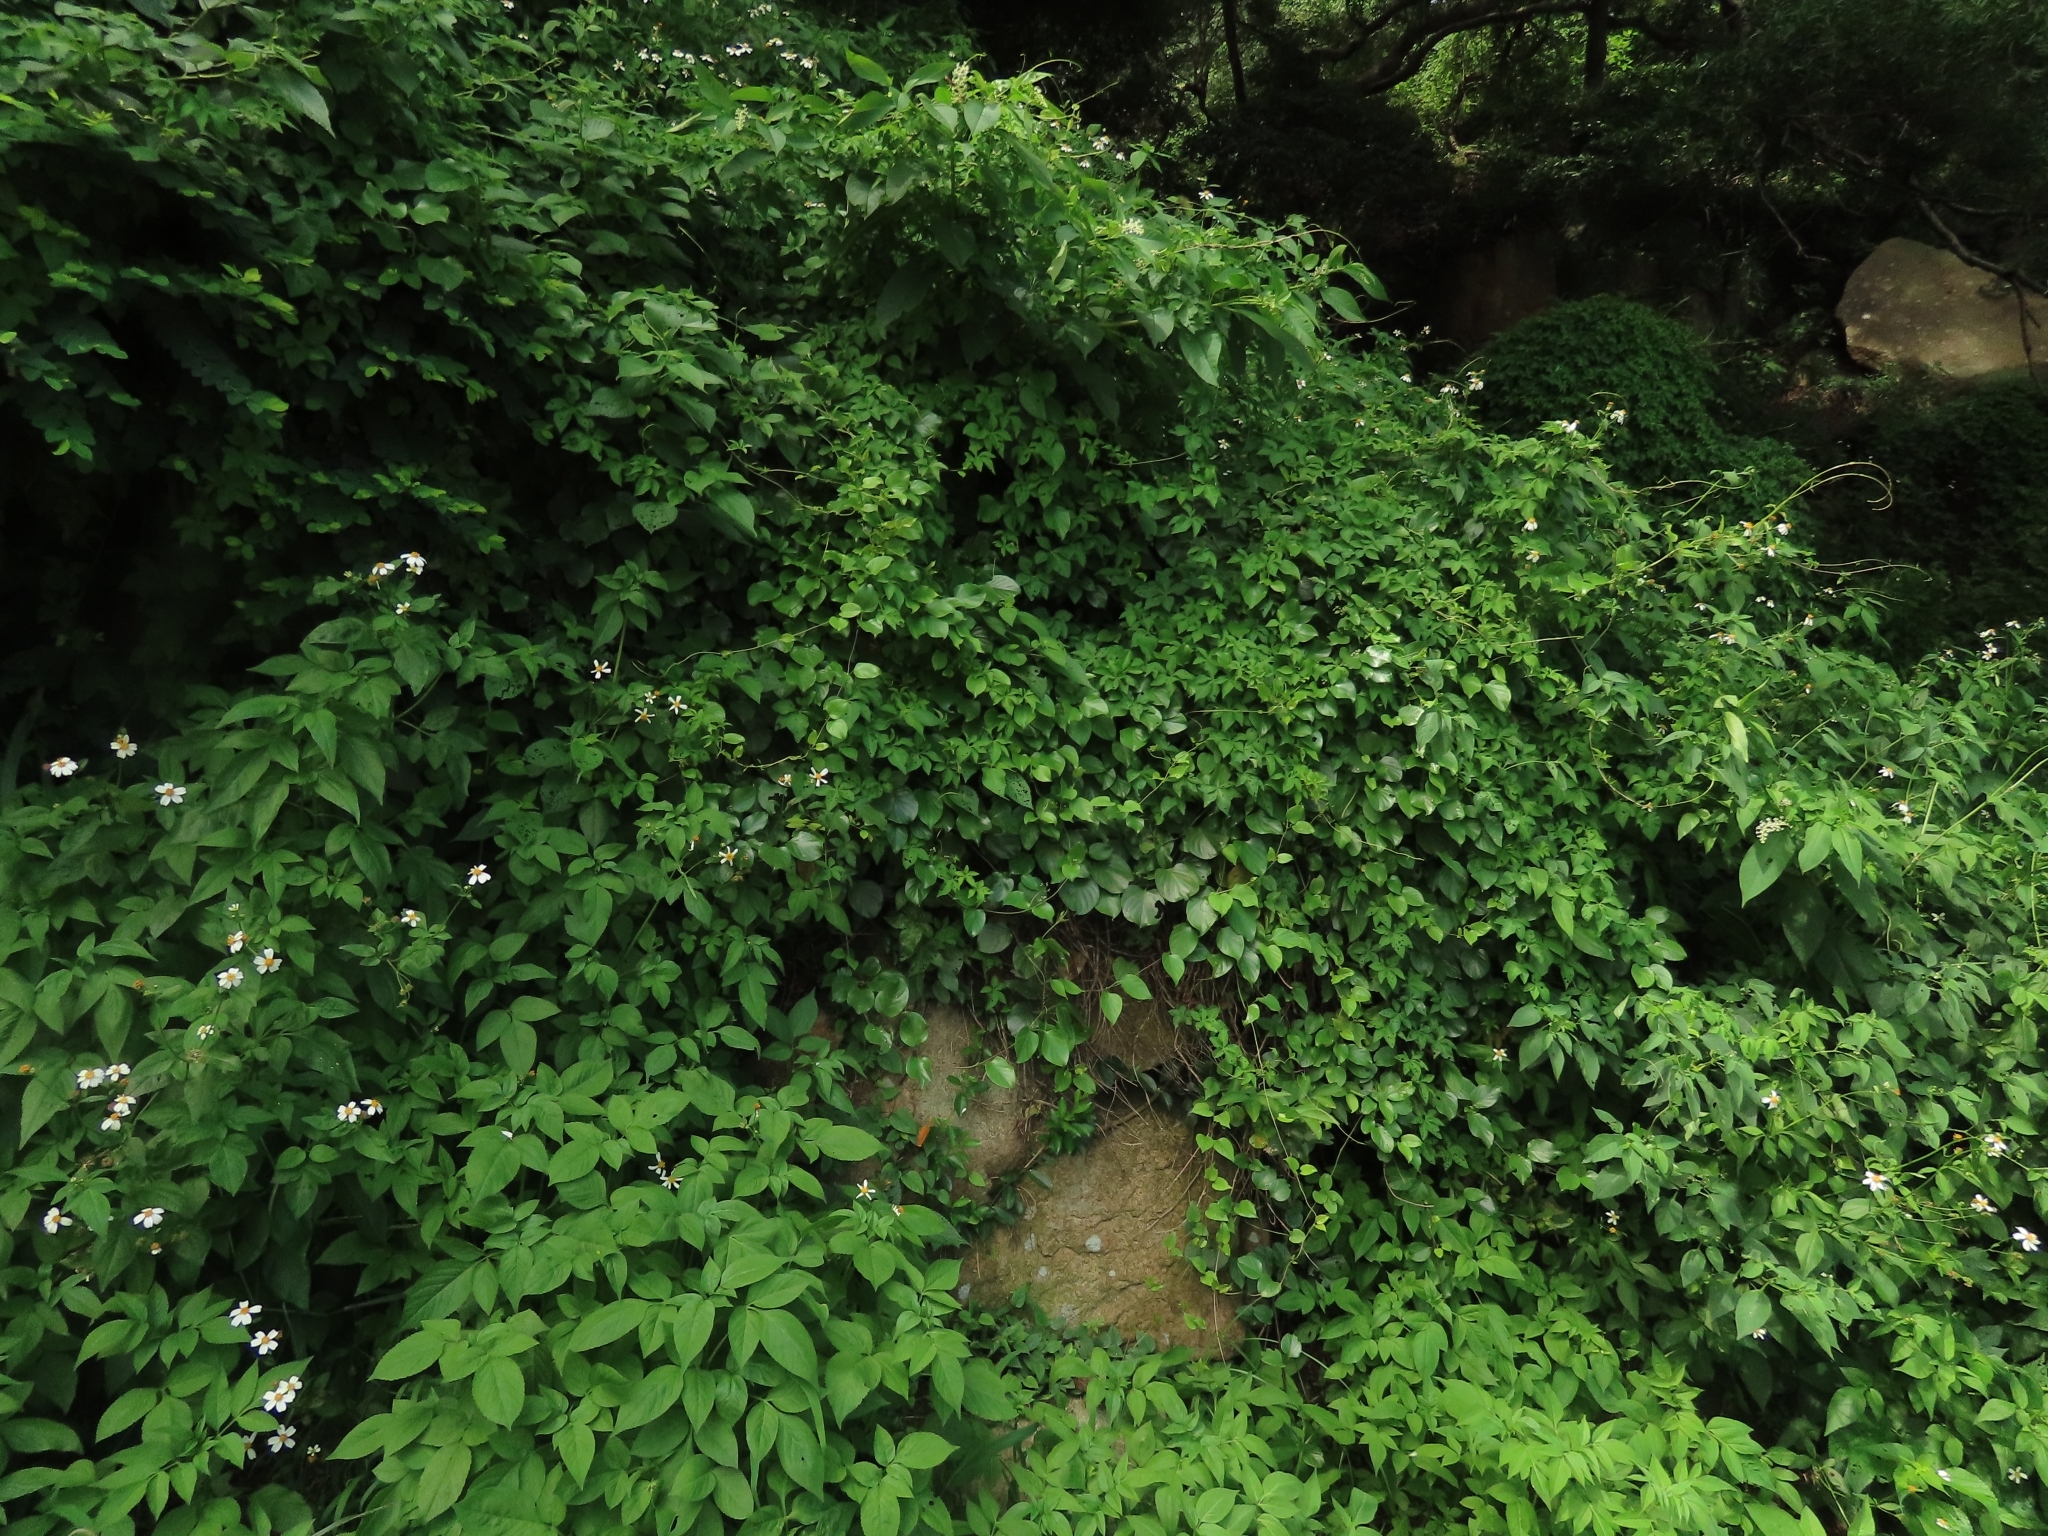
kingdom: Plantae
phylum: Tracheophyta
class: Magnoliopsida
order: Gentianales
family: Rubiaceae
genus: Paederia
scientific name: Paederia foetida
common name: Stinkvine
